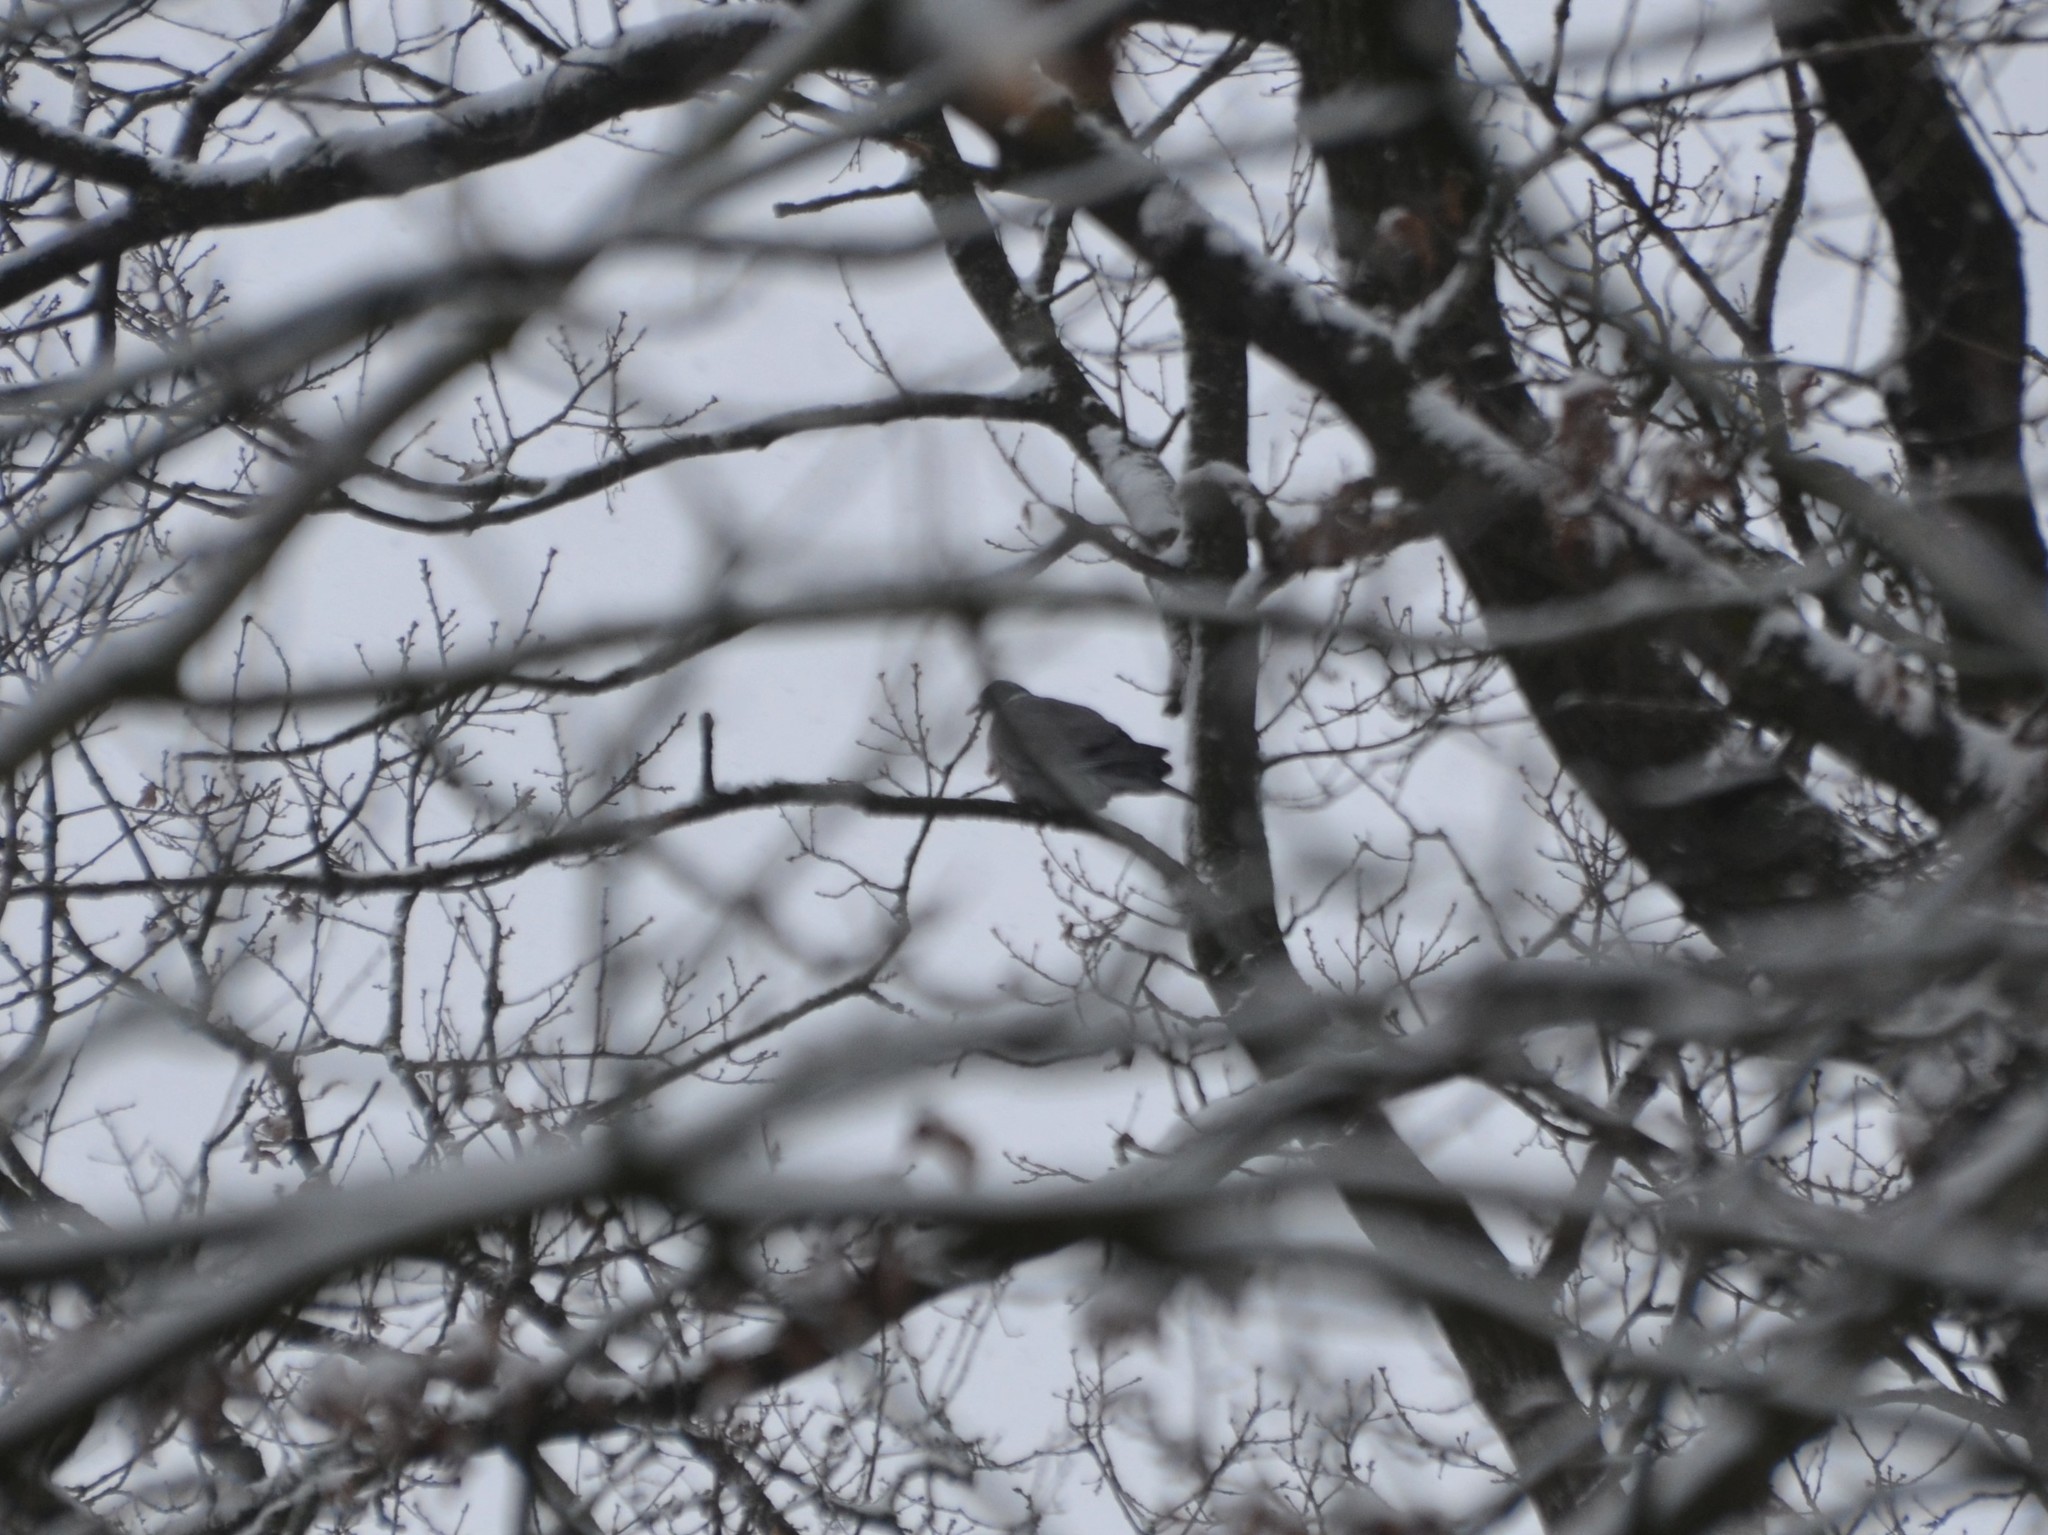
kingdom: Animalia
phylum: Chordata
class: Aves
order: Columbiformes
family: Columbidae
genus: Columba
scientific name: Columba palumbus
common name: Common wood pigeon
